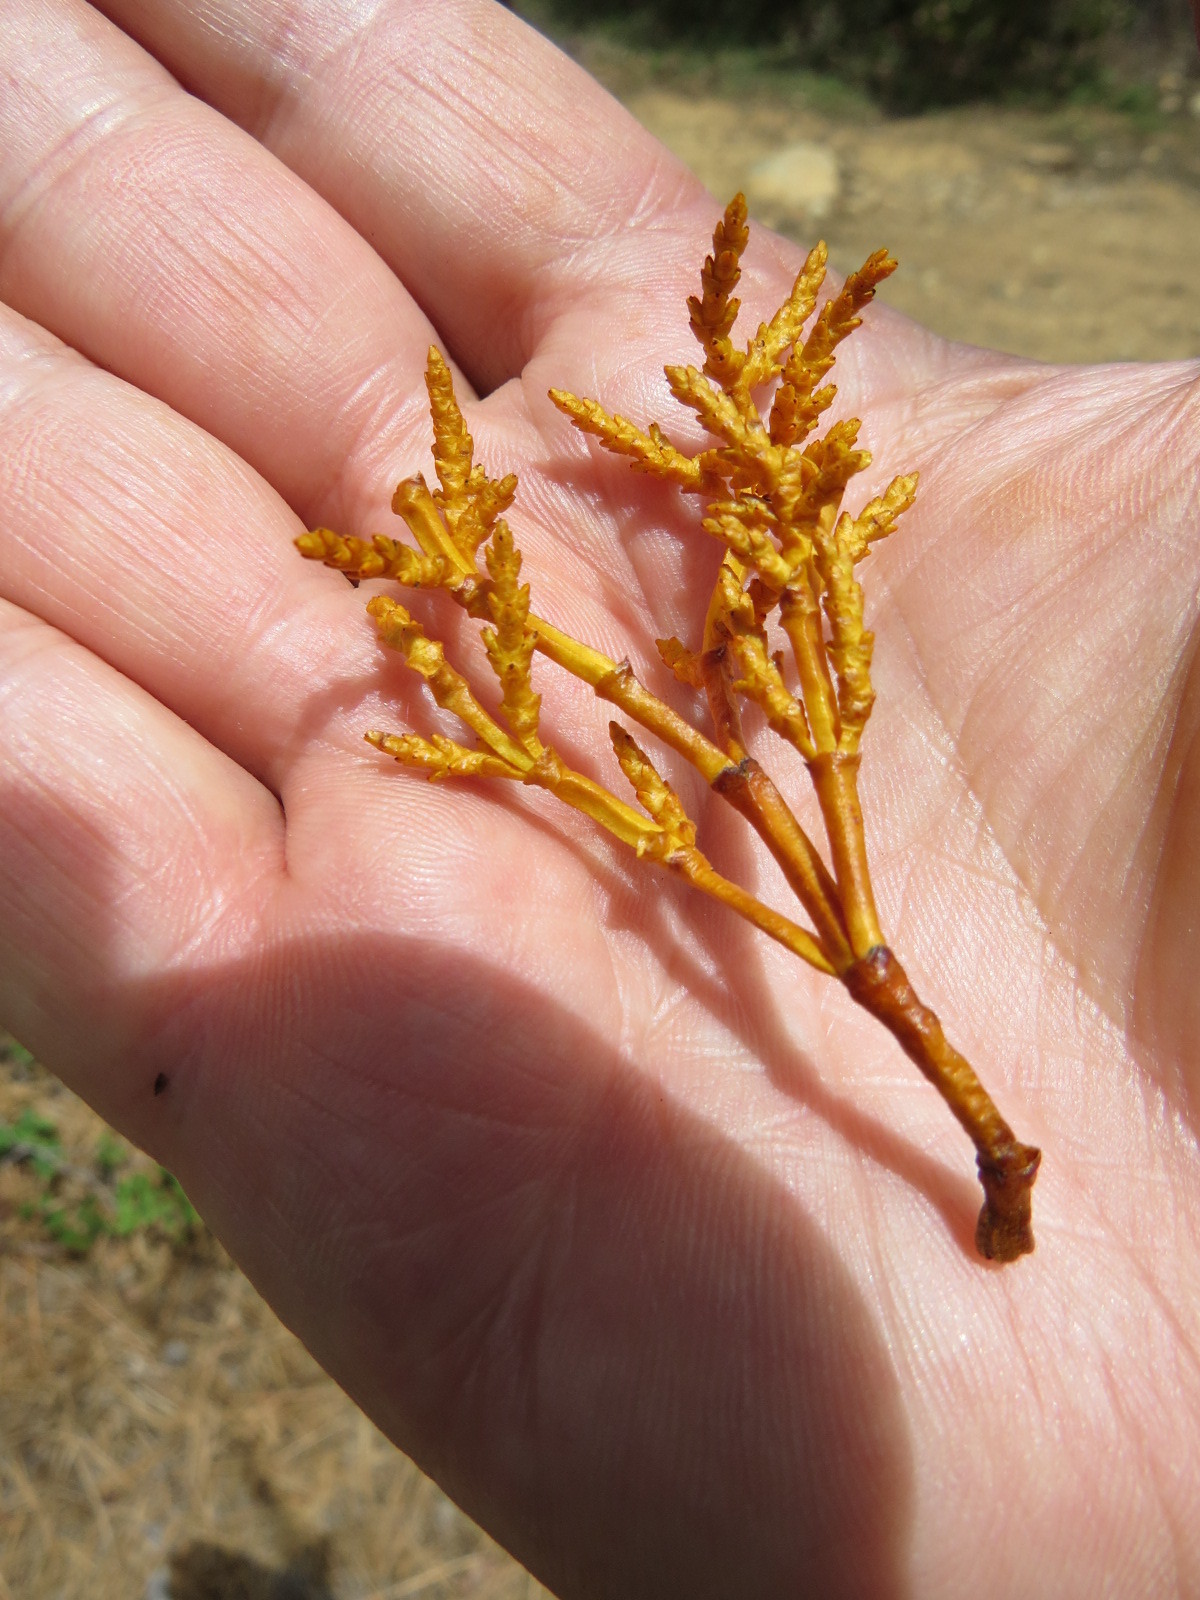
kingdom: Plantae
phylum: Tracheophyta
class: Magnoliopsida
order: Santalales
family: Viscaceae
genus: Arceuthobium
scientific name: Arceuthobium campylopodum
